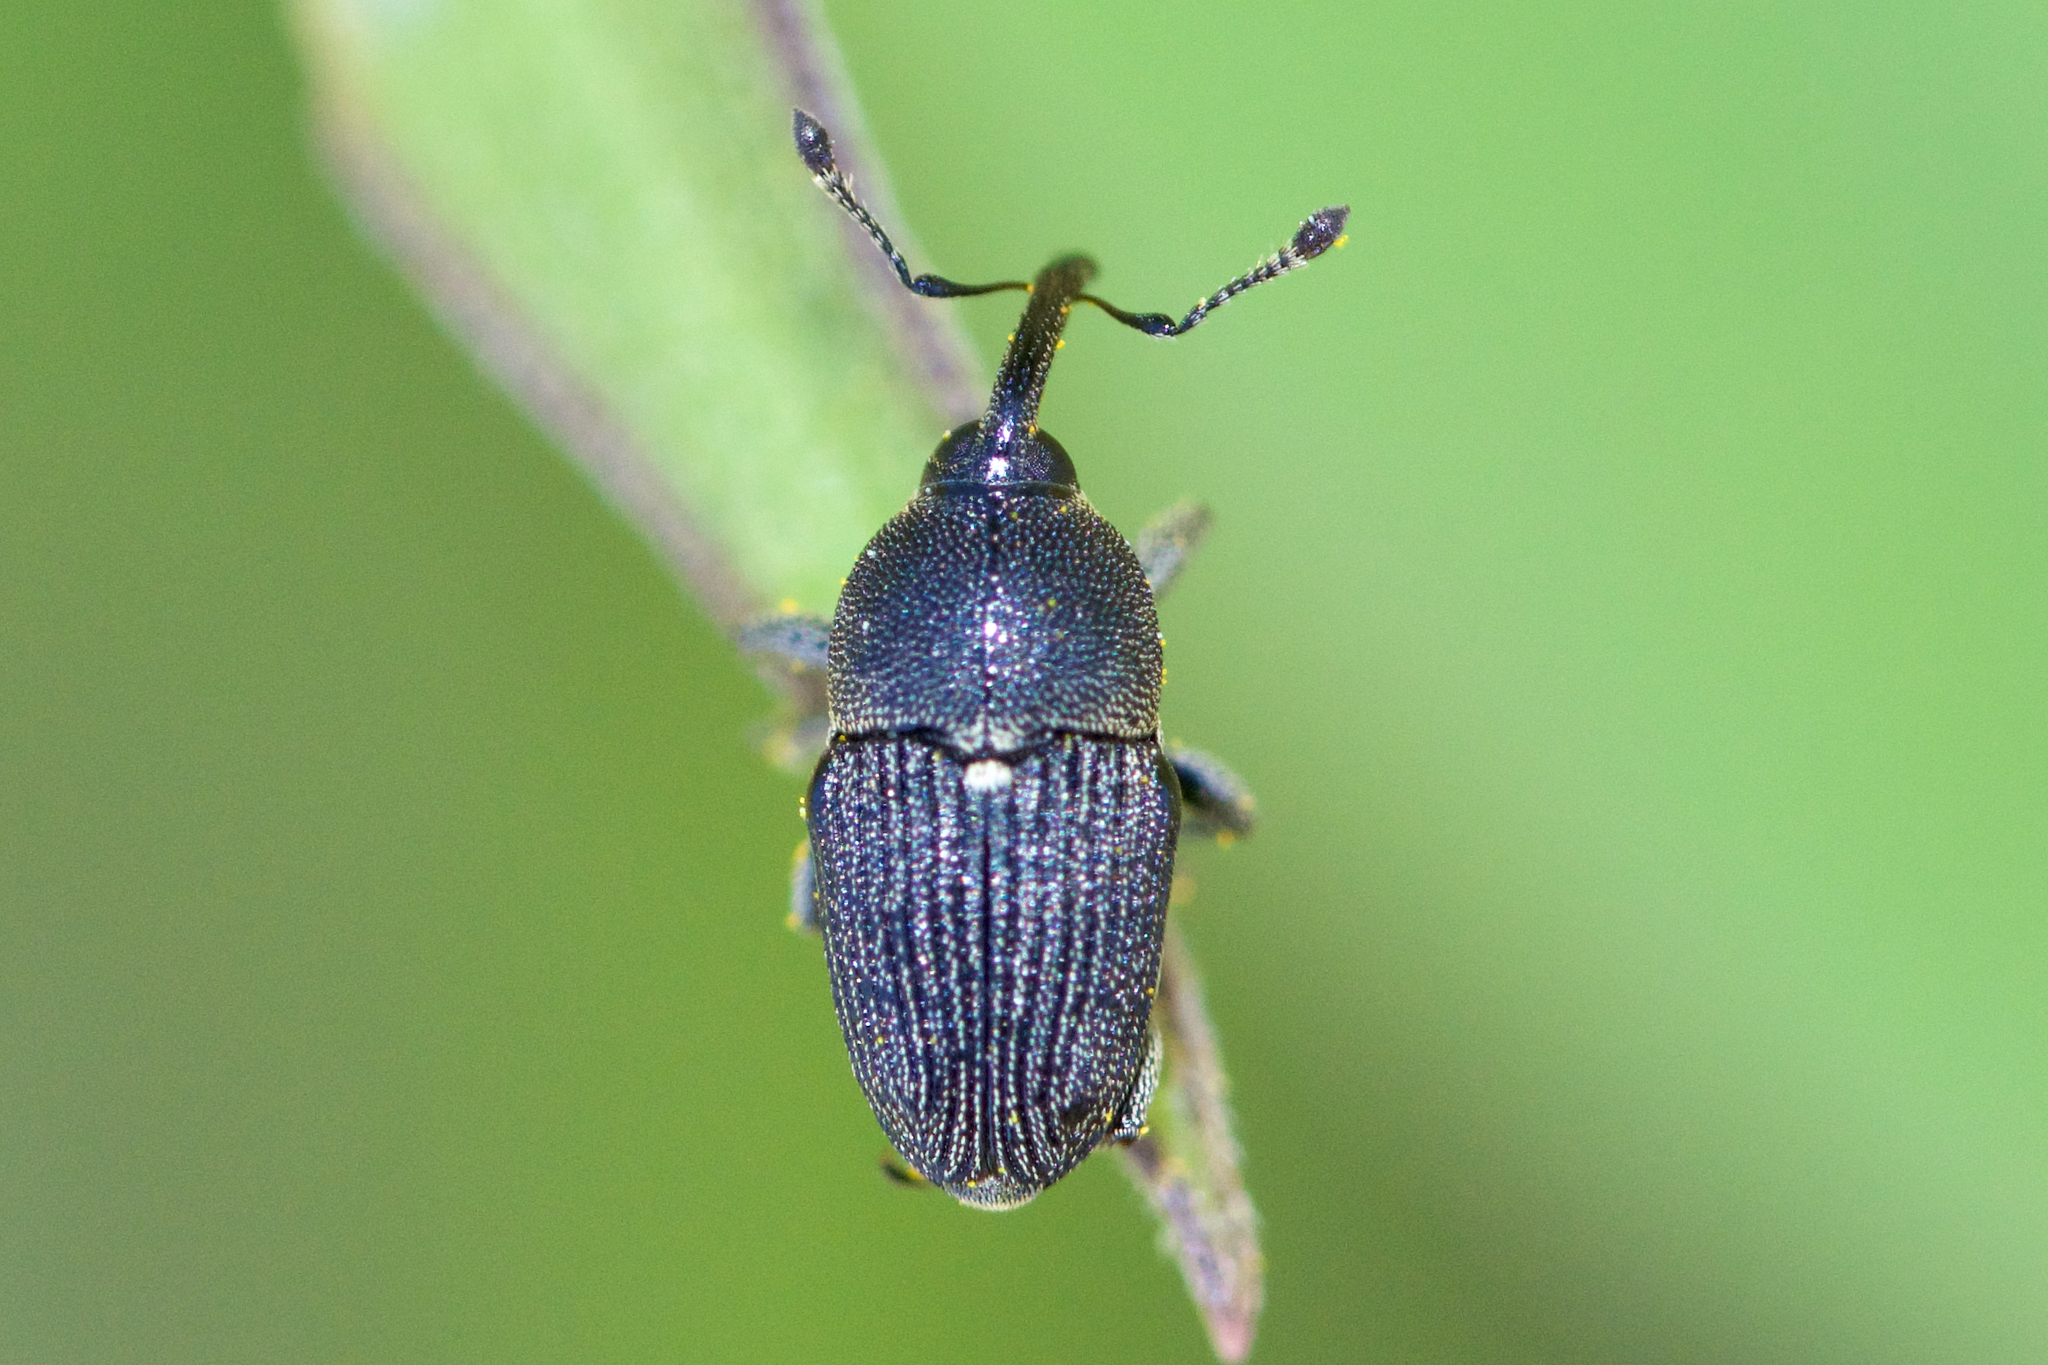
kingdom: Animalia
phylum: Arthropoda
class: Insecta
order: Coleoptera
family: Curculionidae
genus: Odontocorynus
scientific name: Odontocorynus salebrosus
